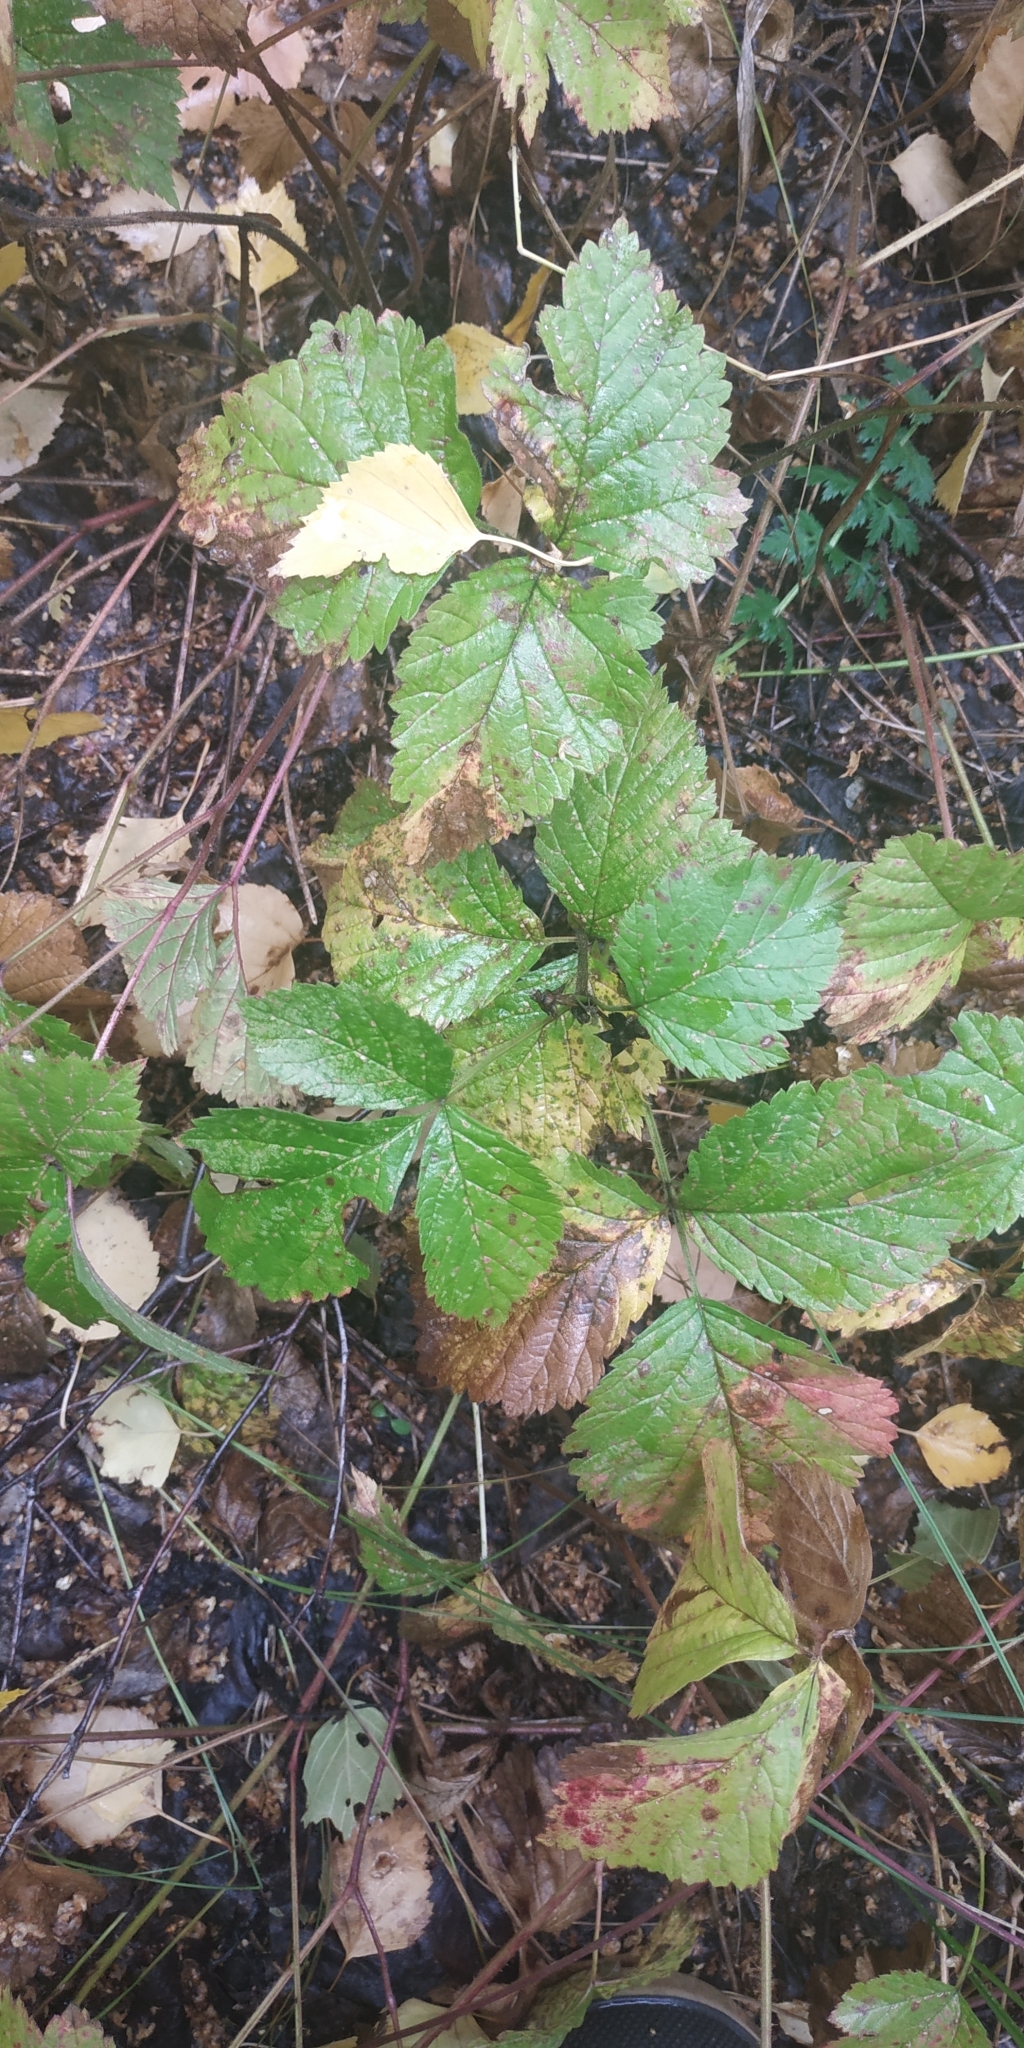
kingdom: Plantae
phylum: Tracheophyta
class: Magnoliopsida
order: Rosales
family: Rosaceae
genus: Rubus
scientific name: Rubus saxatilis
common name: Stone bramble
